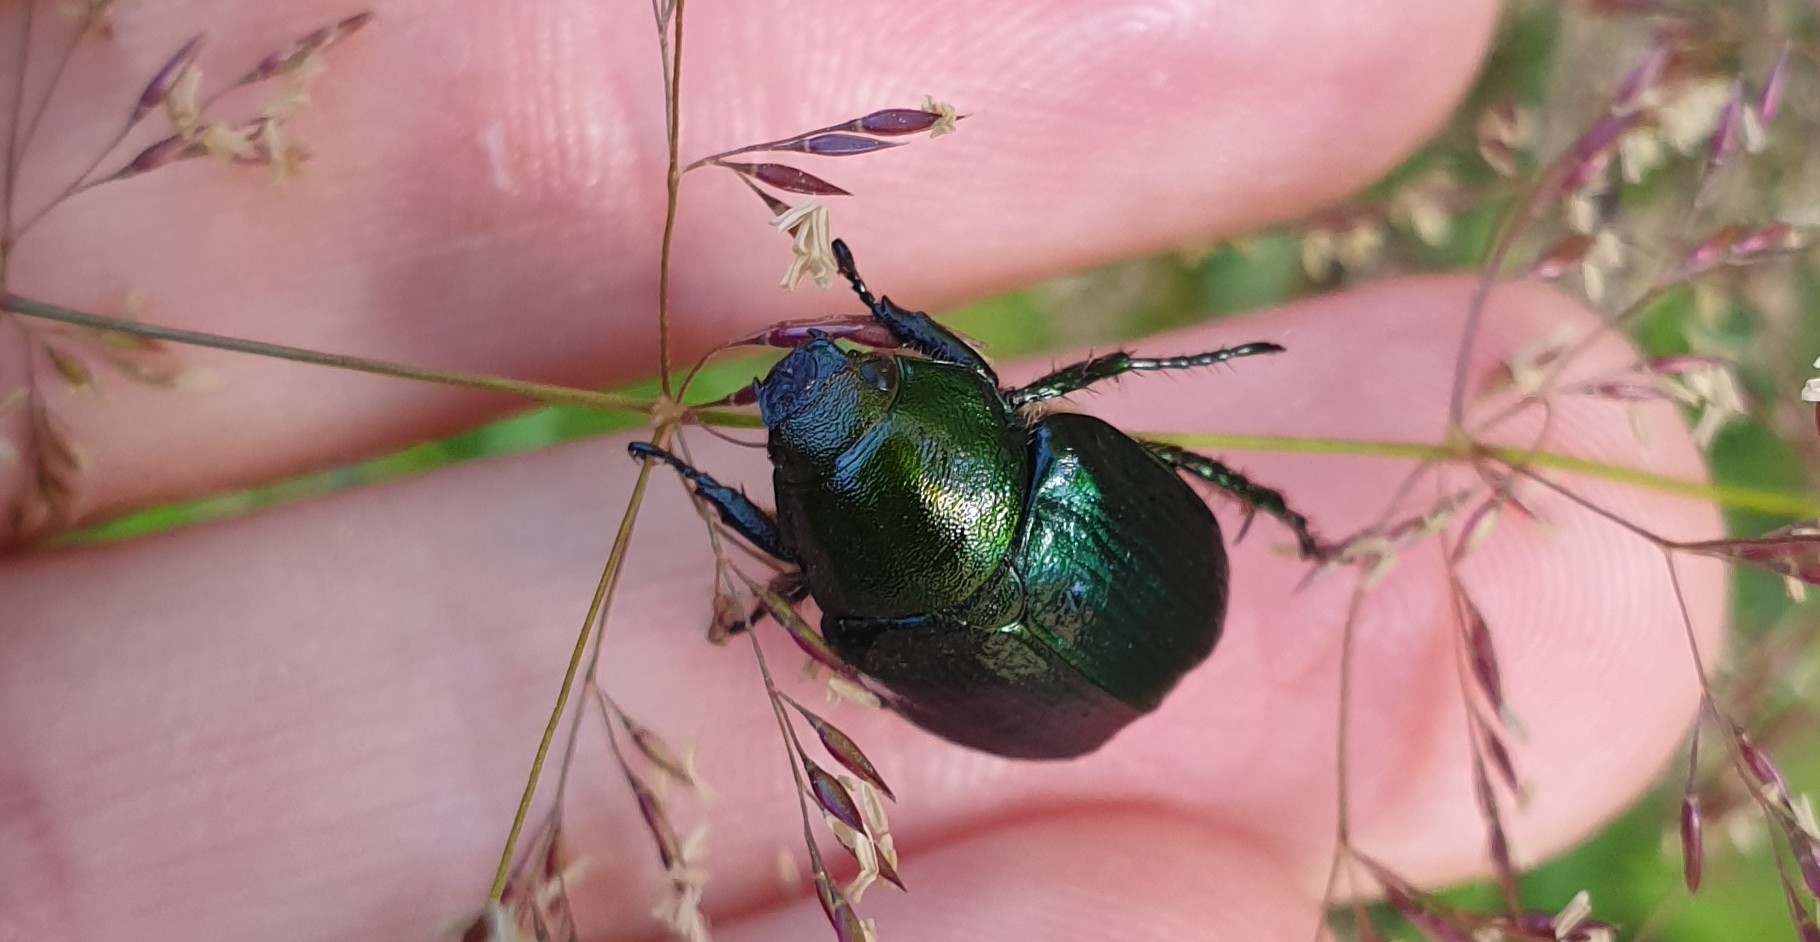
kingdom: Animalia
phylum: Arthropoda
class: Insecta
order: Coleoptera
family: Scarabaeidae
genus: Anomala
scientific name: Anomala dubia
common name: Dune chafer
